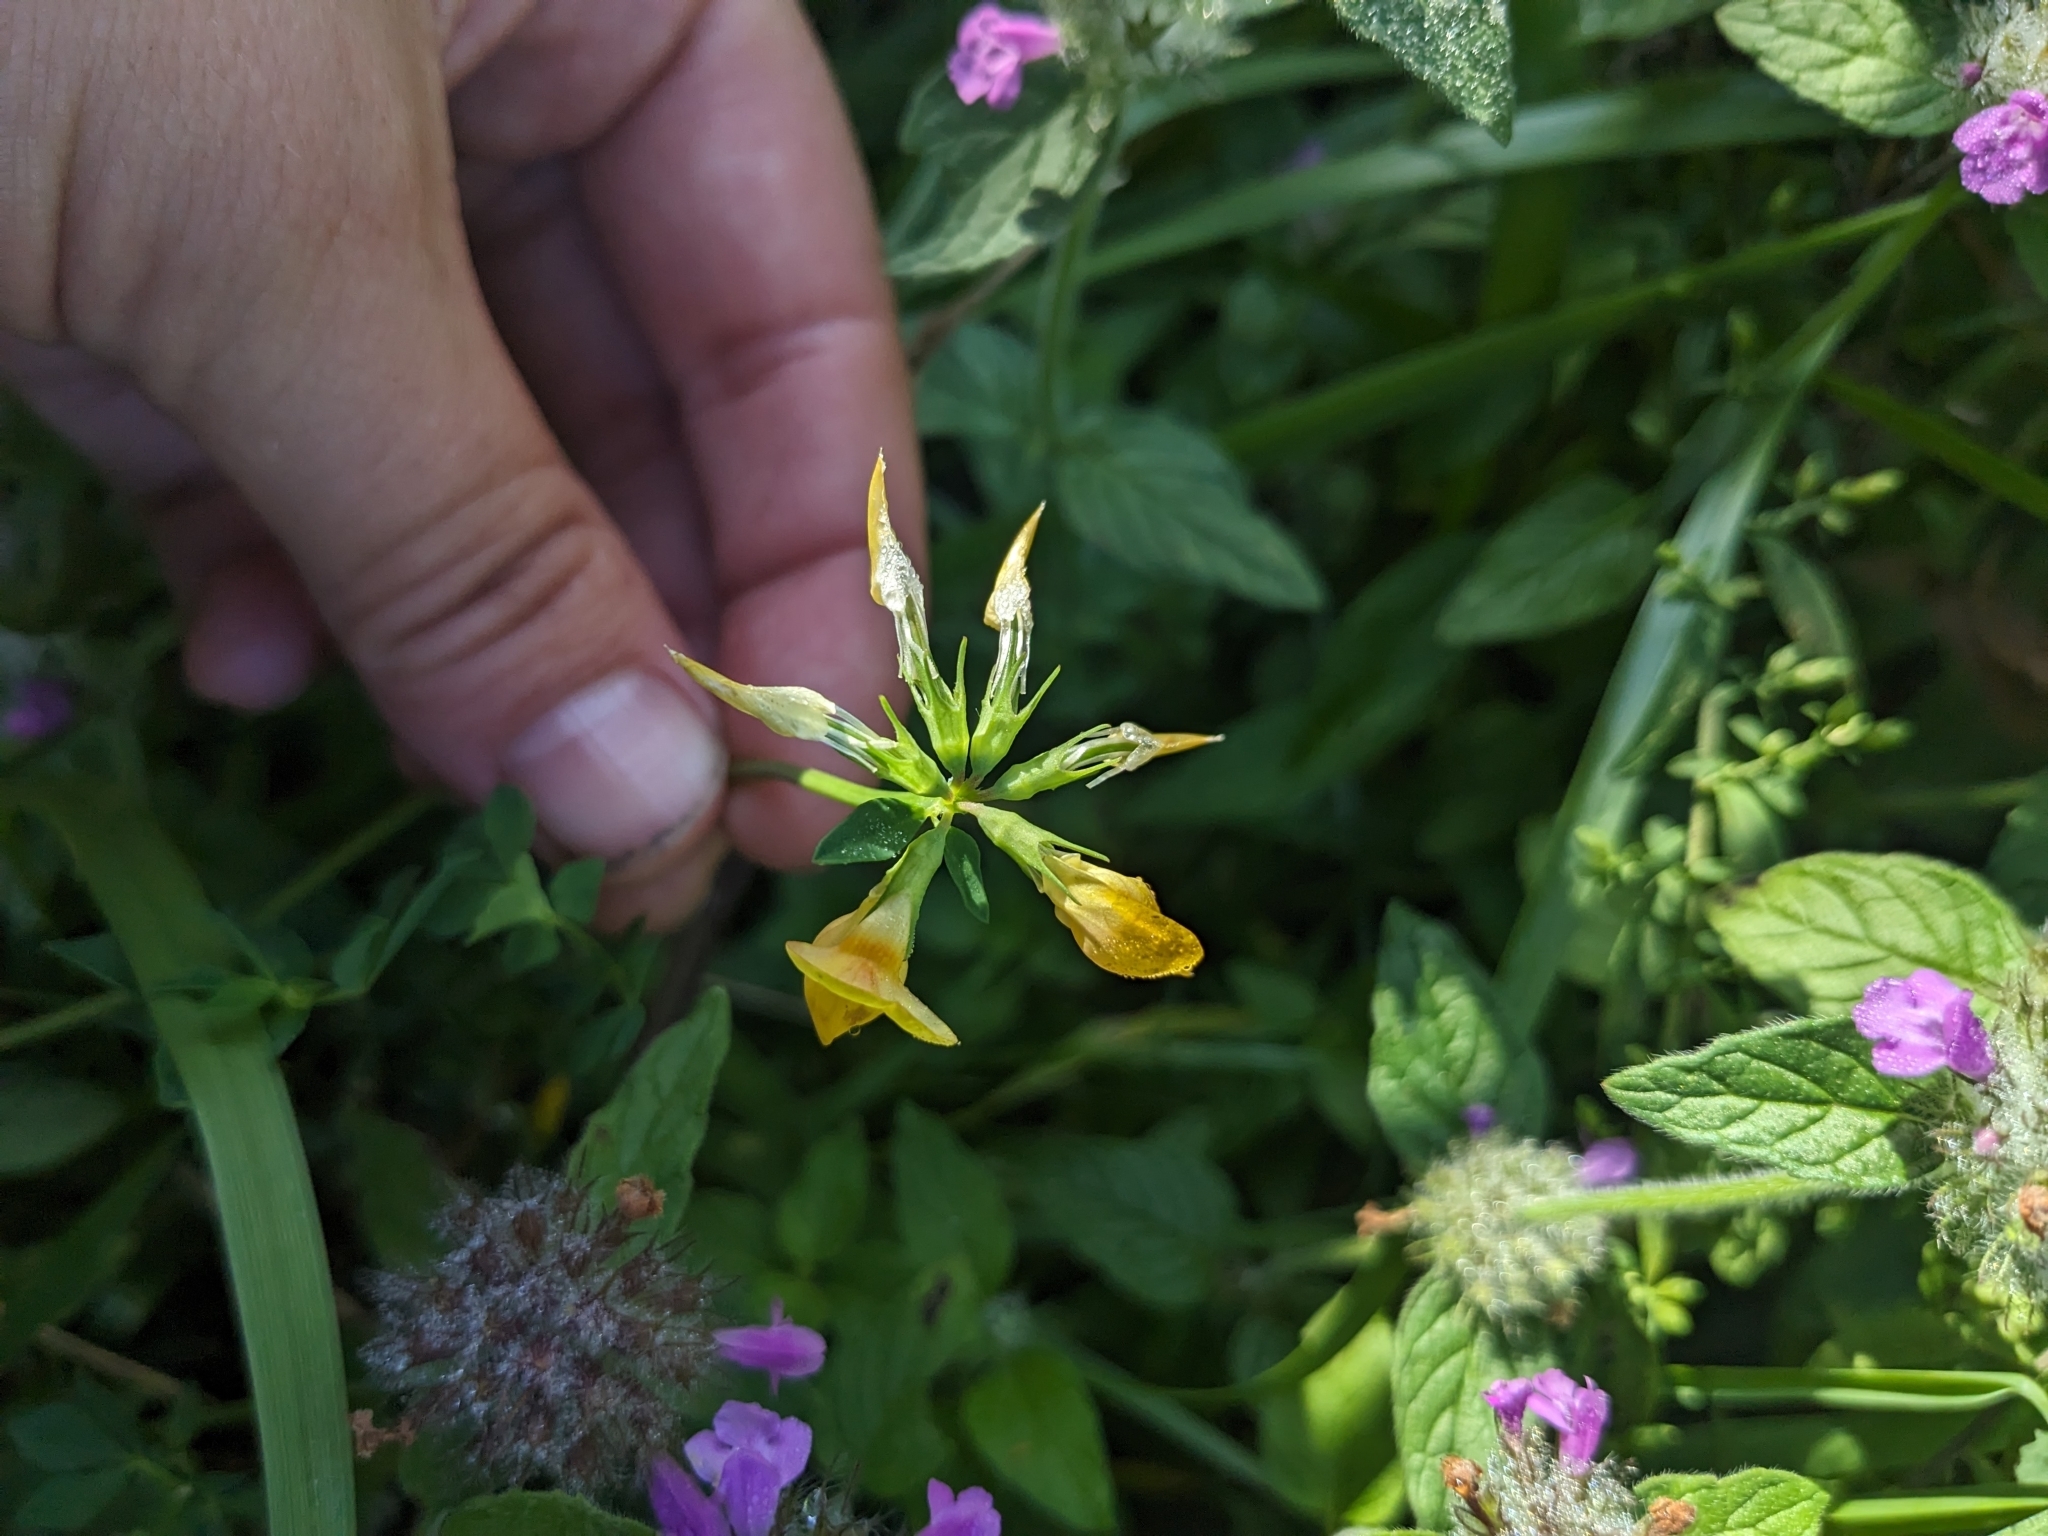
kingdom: Plantae
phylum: Tracheophyta
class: Magnoliopsida
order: Fabales
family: Fabaceae
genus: Lotus
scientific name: Lotus corniculatus
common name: Common bird's-foot-trefoil
